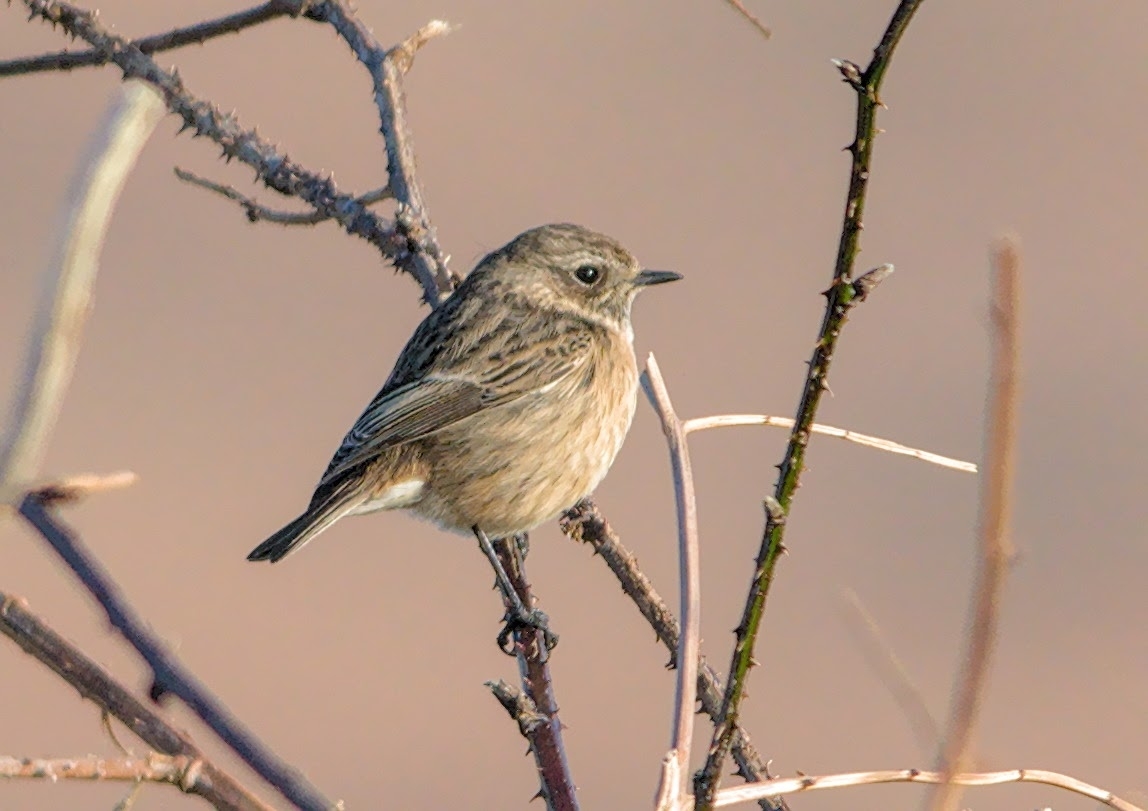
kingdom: Animalia
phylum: Chordata
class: Aves
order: Passeriformes
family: Muscicapidae
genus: Saxicola
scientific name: Saxicola rubicola
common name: European stonechat
